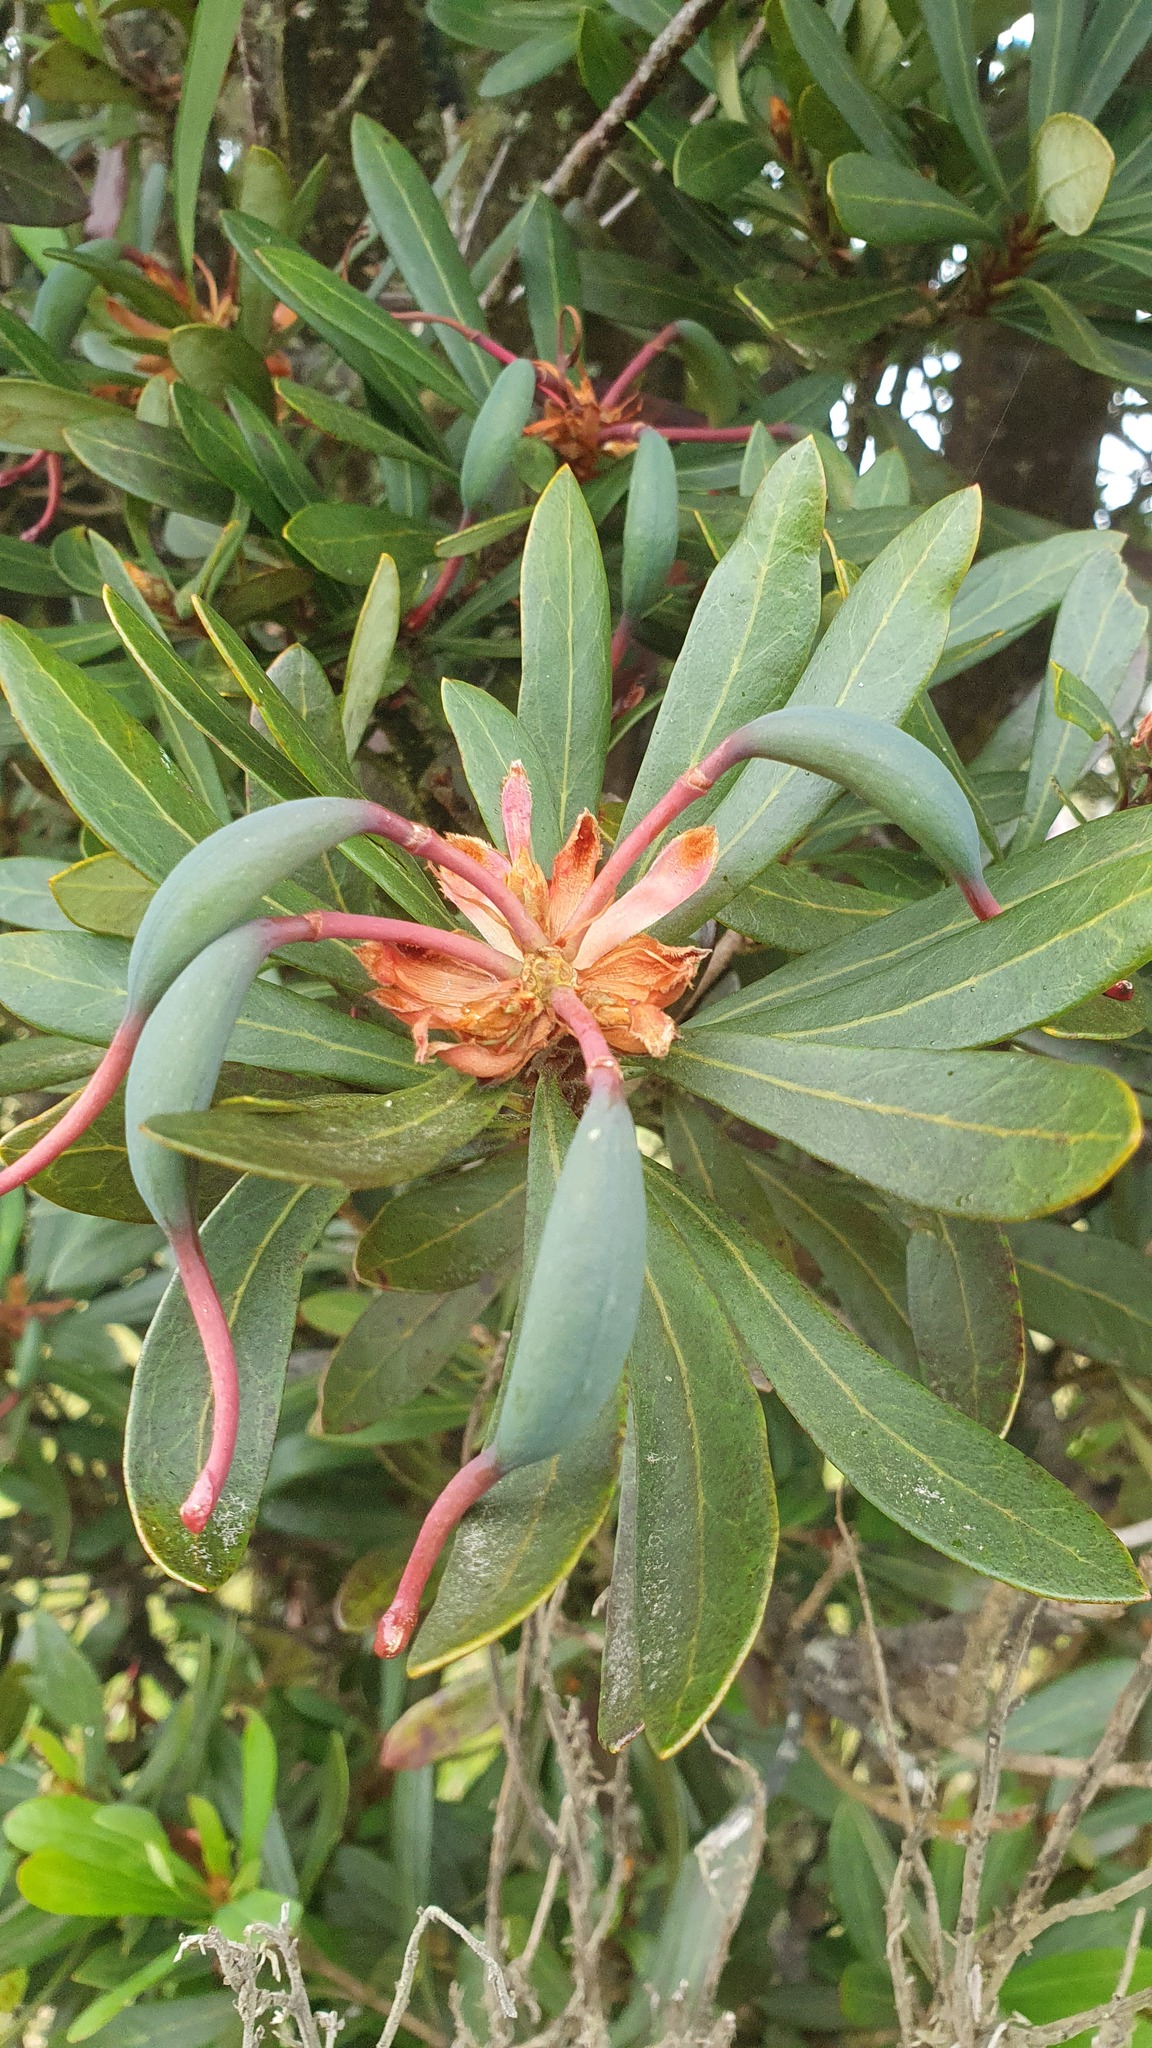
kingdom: Plantae
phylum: Tracheophyta
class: Magnoliopsida
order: Proteales
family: Proteaceae
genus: Telopea
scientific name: Telopea truncata
